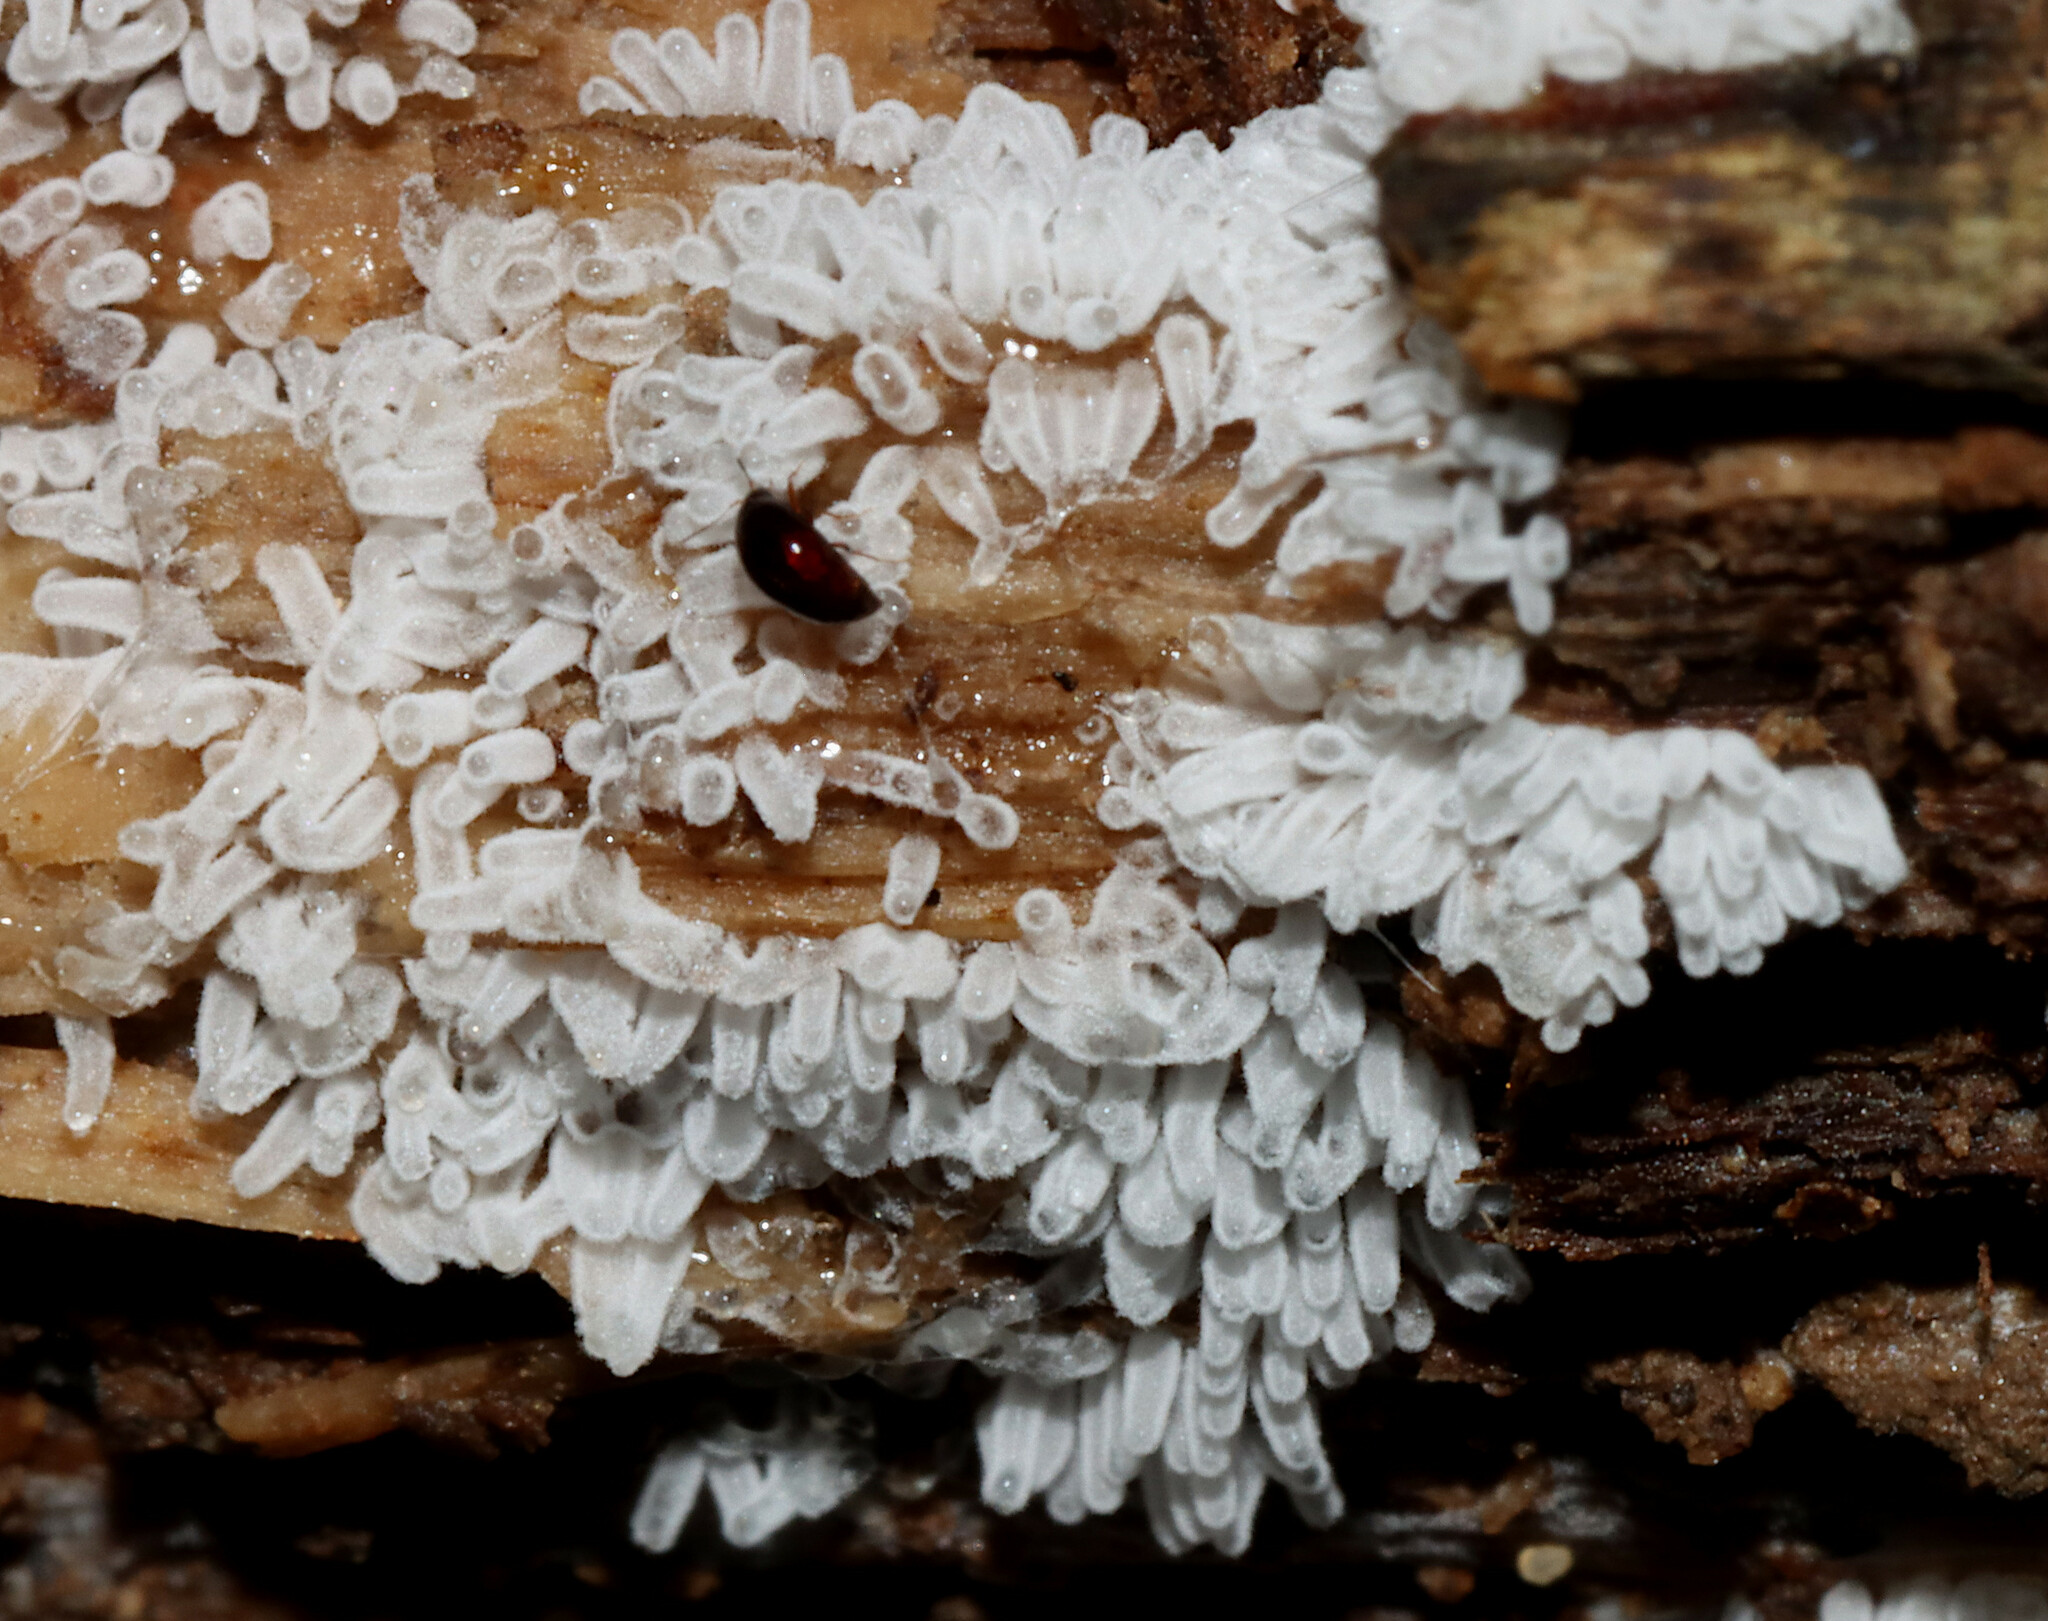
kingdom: Protozoa
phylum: Mycetozoa
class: Protosteliomycetes
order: Ceratiomyxales
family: Ceratiomyxaceae
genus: Ceratiomyxa
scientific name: Ceratiomyxa fruticulosa
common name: Honeycomb coral slime mold
